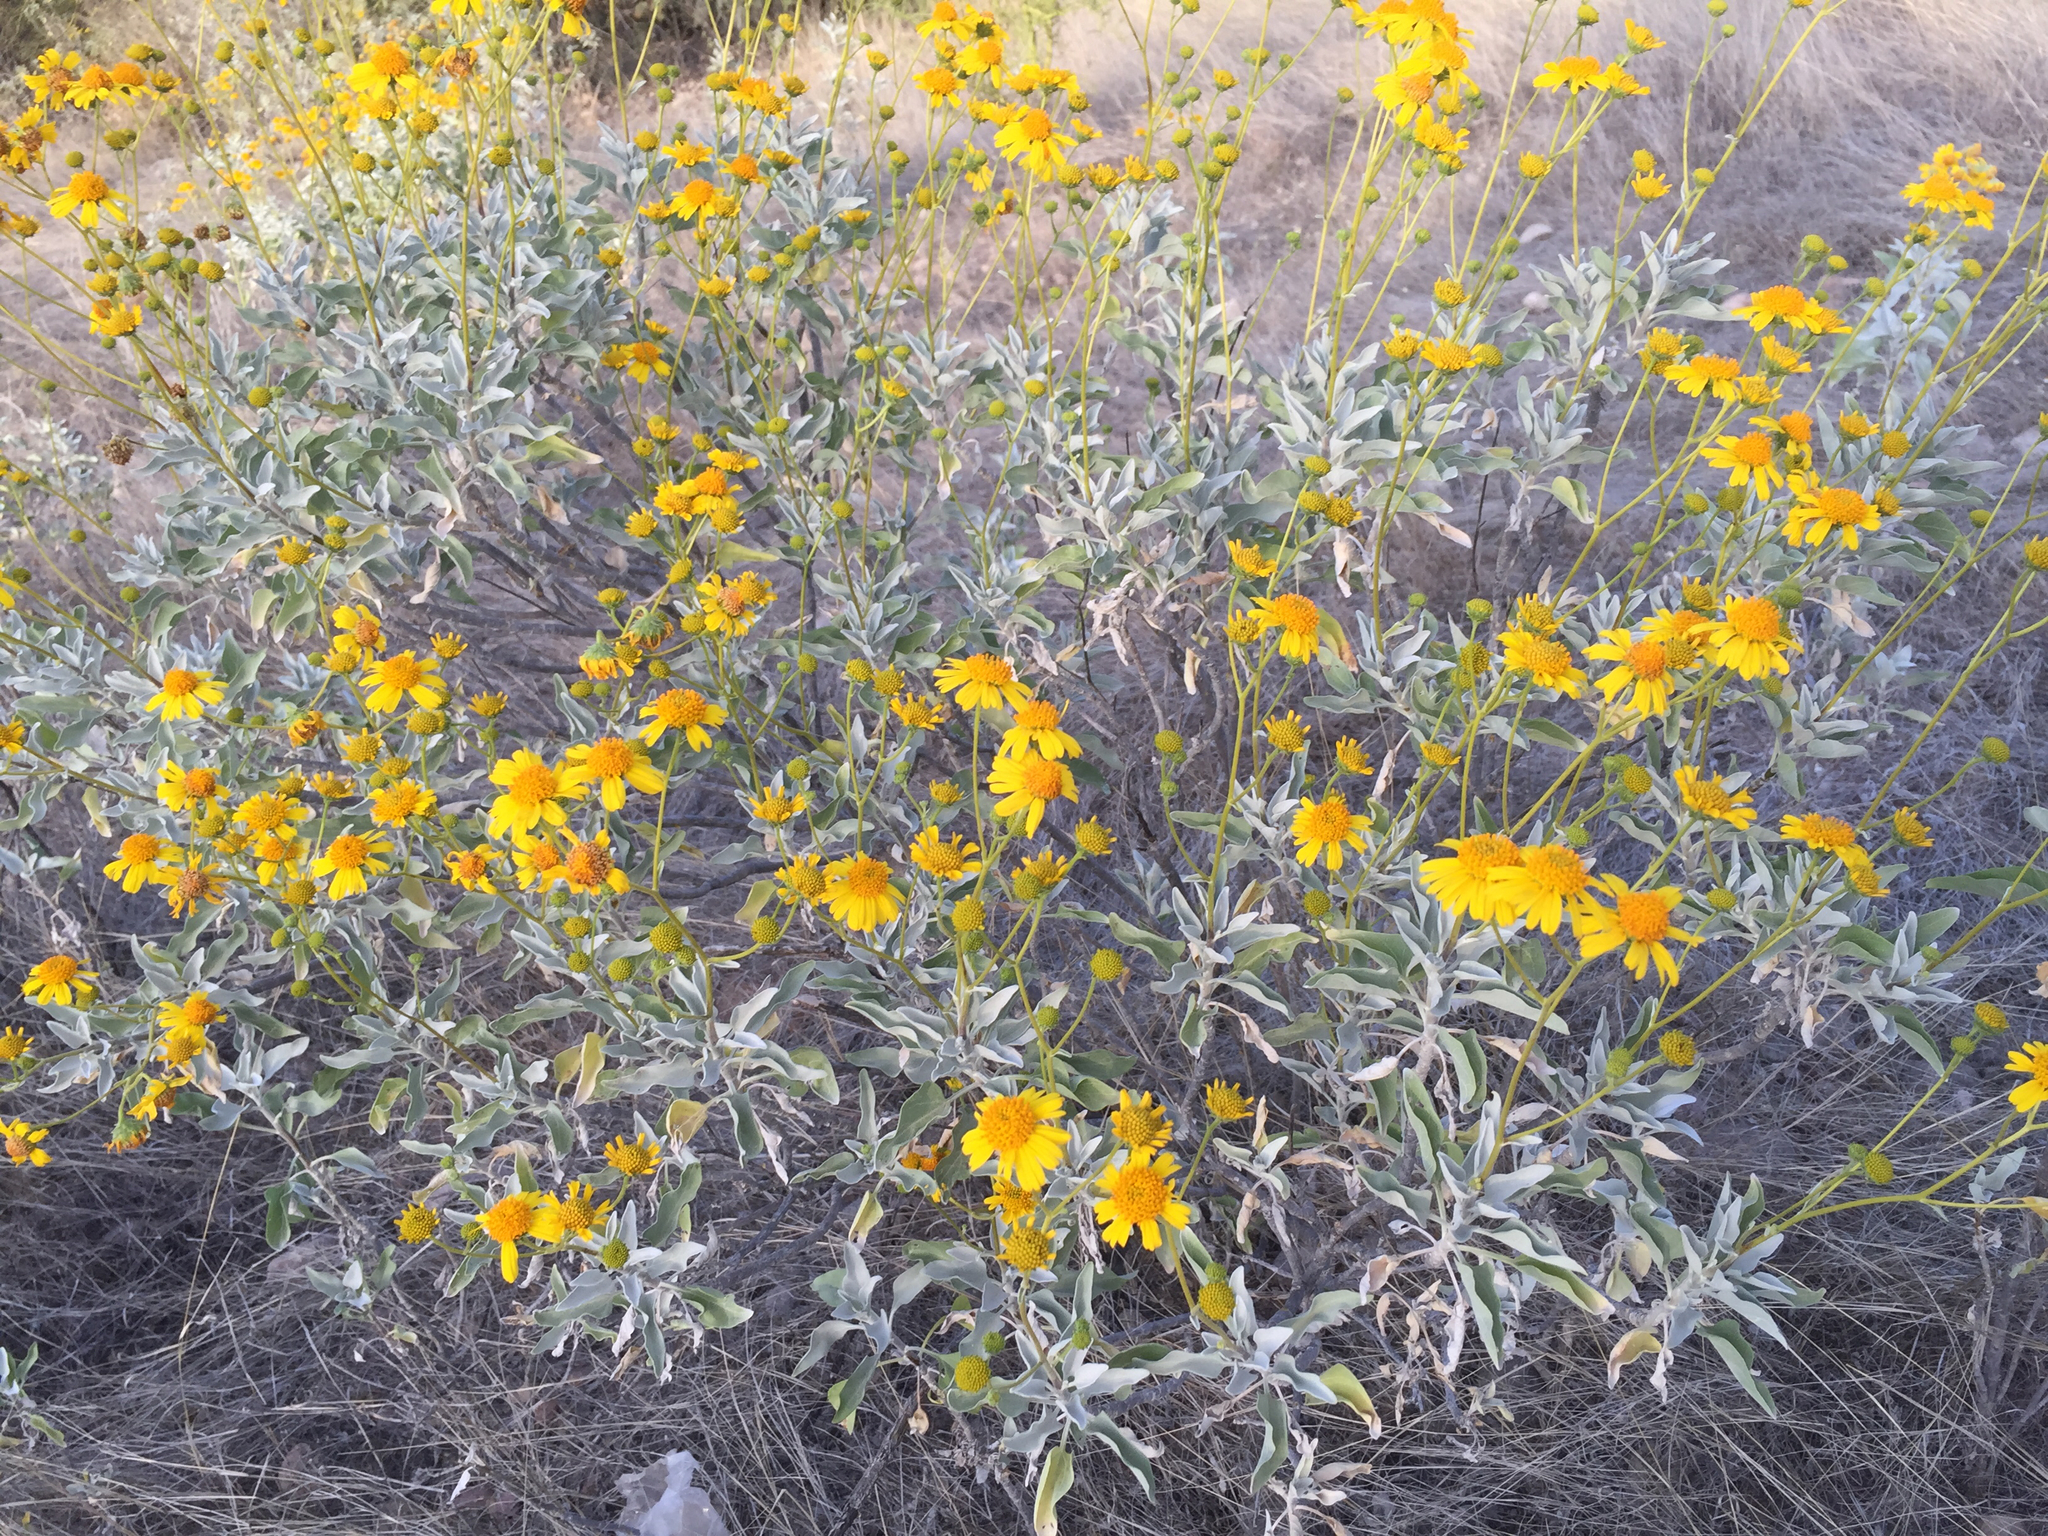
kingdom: Plantae
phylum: Tracheophyta
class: Magnoliopsida
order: Asterales
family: Asteraceae
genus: Encelia
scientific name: Encelia farinosa
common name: Brittlebush
